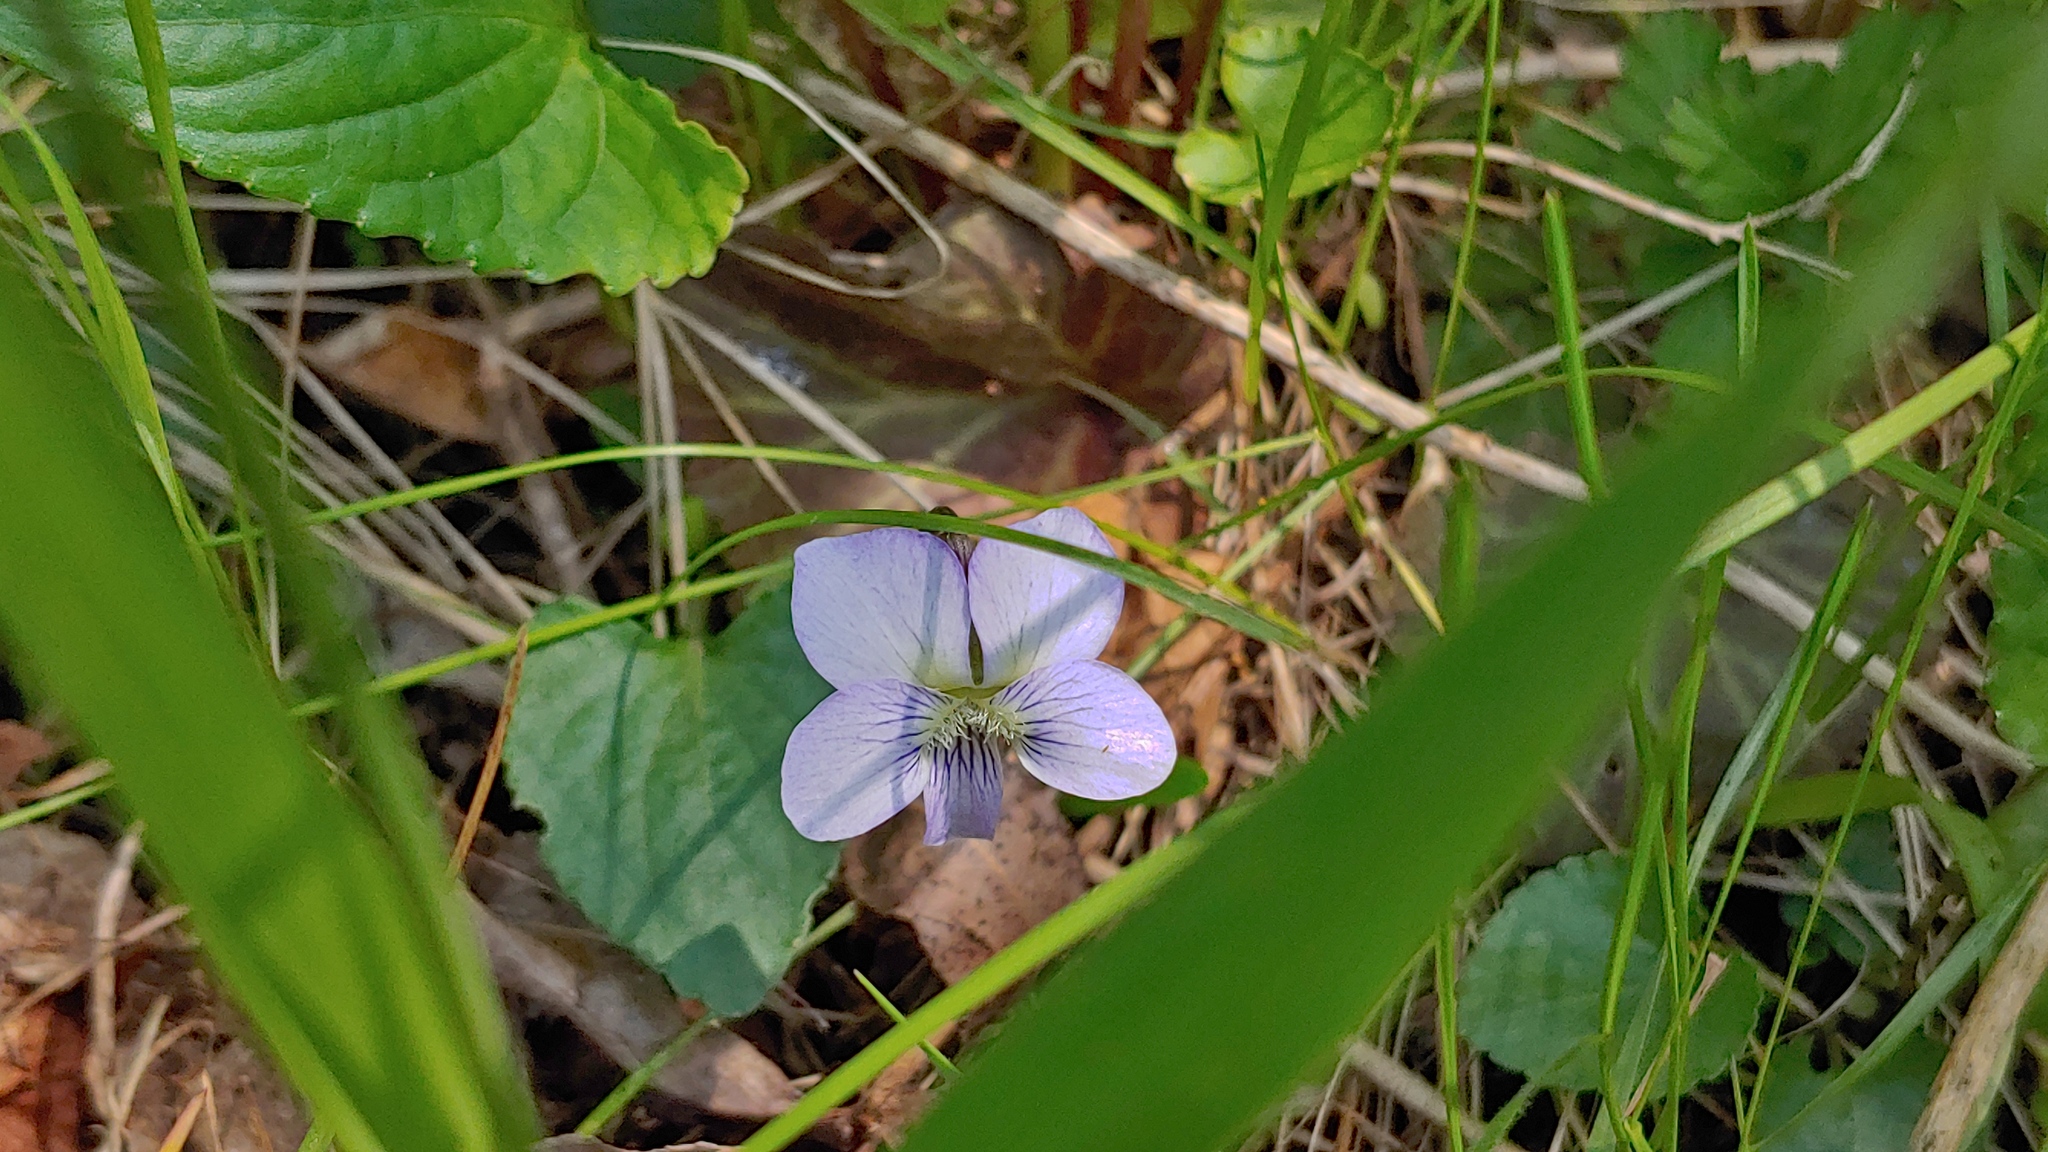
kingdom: Plantae
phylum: Tracheophyta
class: Magnoliopsida
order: Malpighiales
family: Violaceae
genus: Viola
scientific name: Viola missouriensis
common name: Missouri violet
